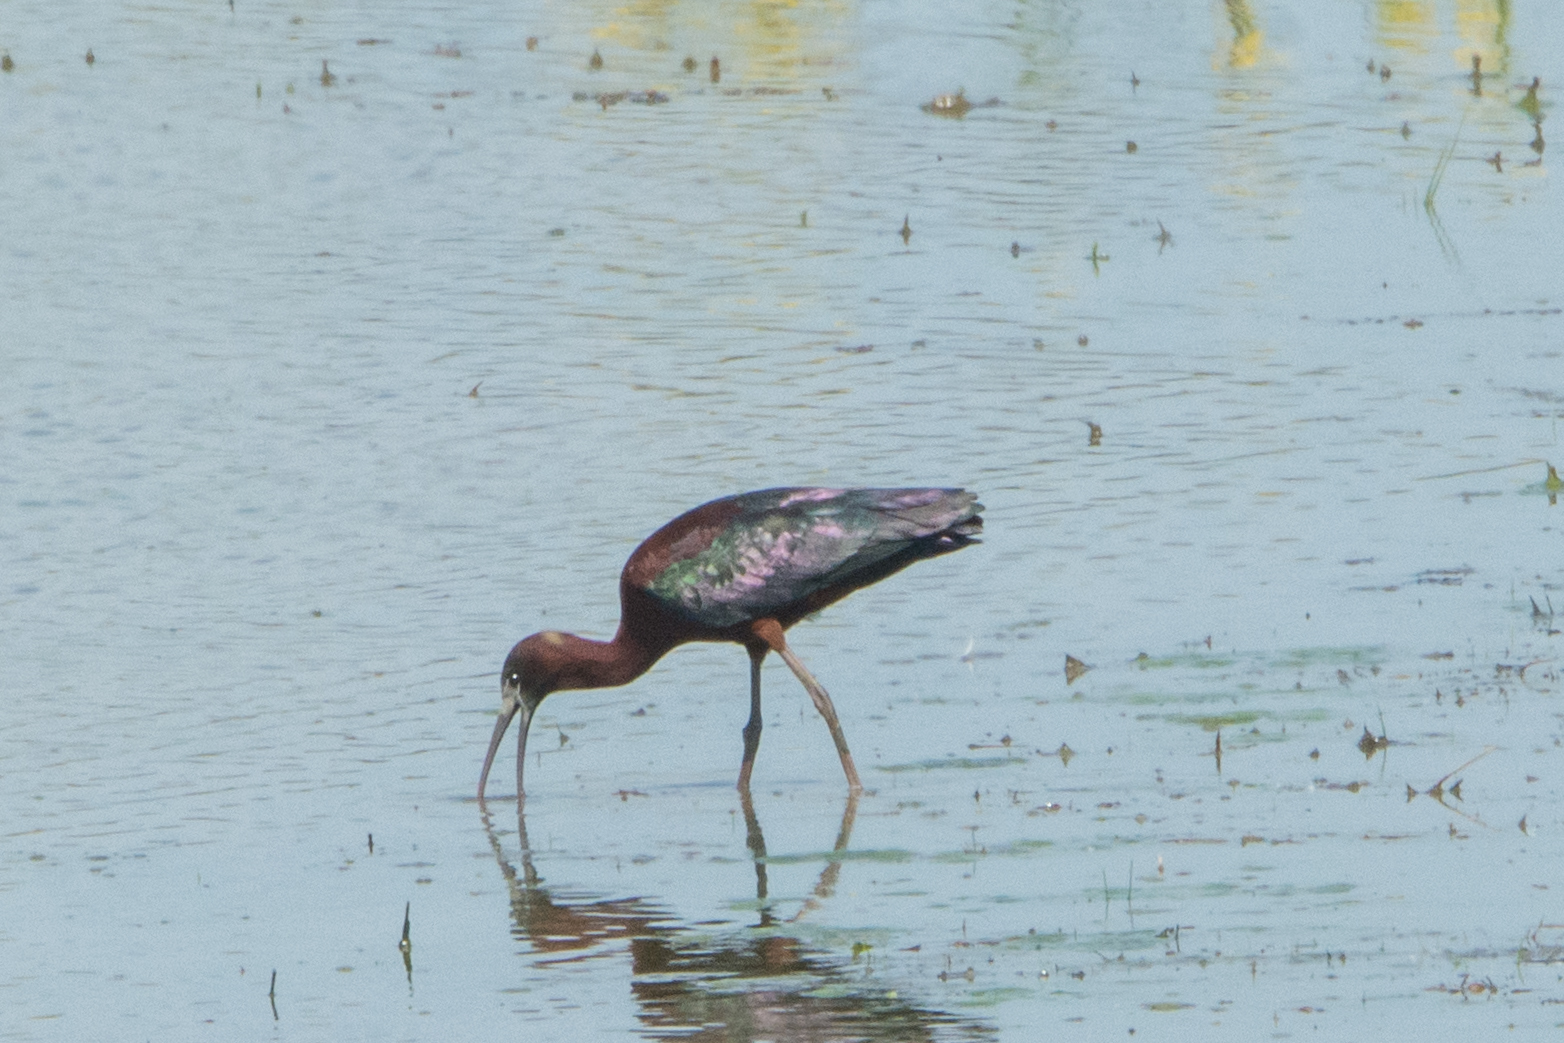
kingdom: Animalia
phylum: Chordata
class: Aves
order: Pelecaniformes
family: Threskiornithidae
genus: Plegadis
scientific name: Plegadis falcinellus
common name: Glossy ibis
